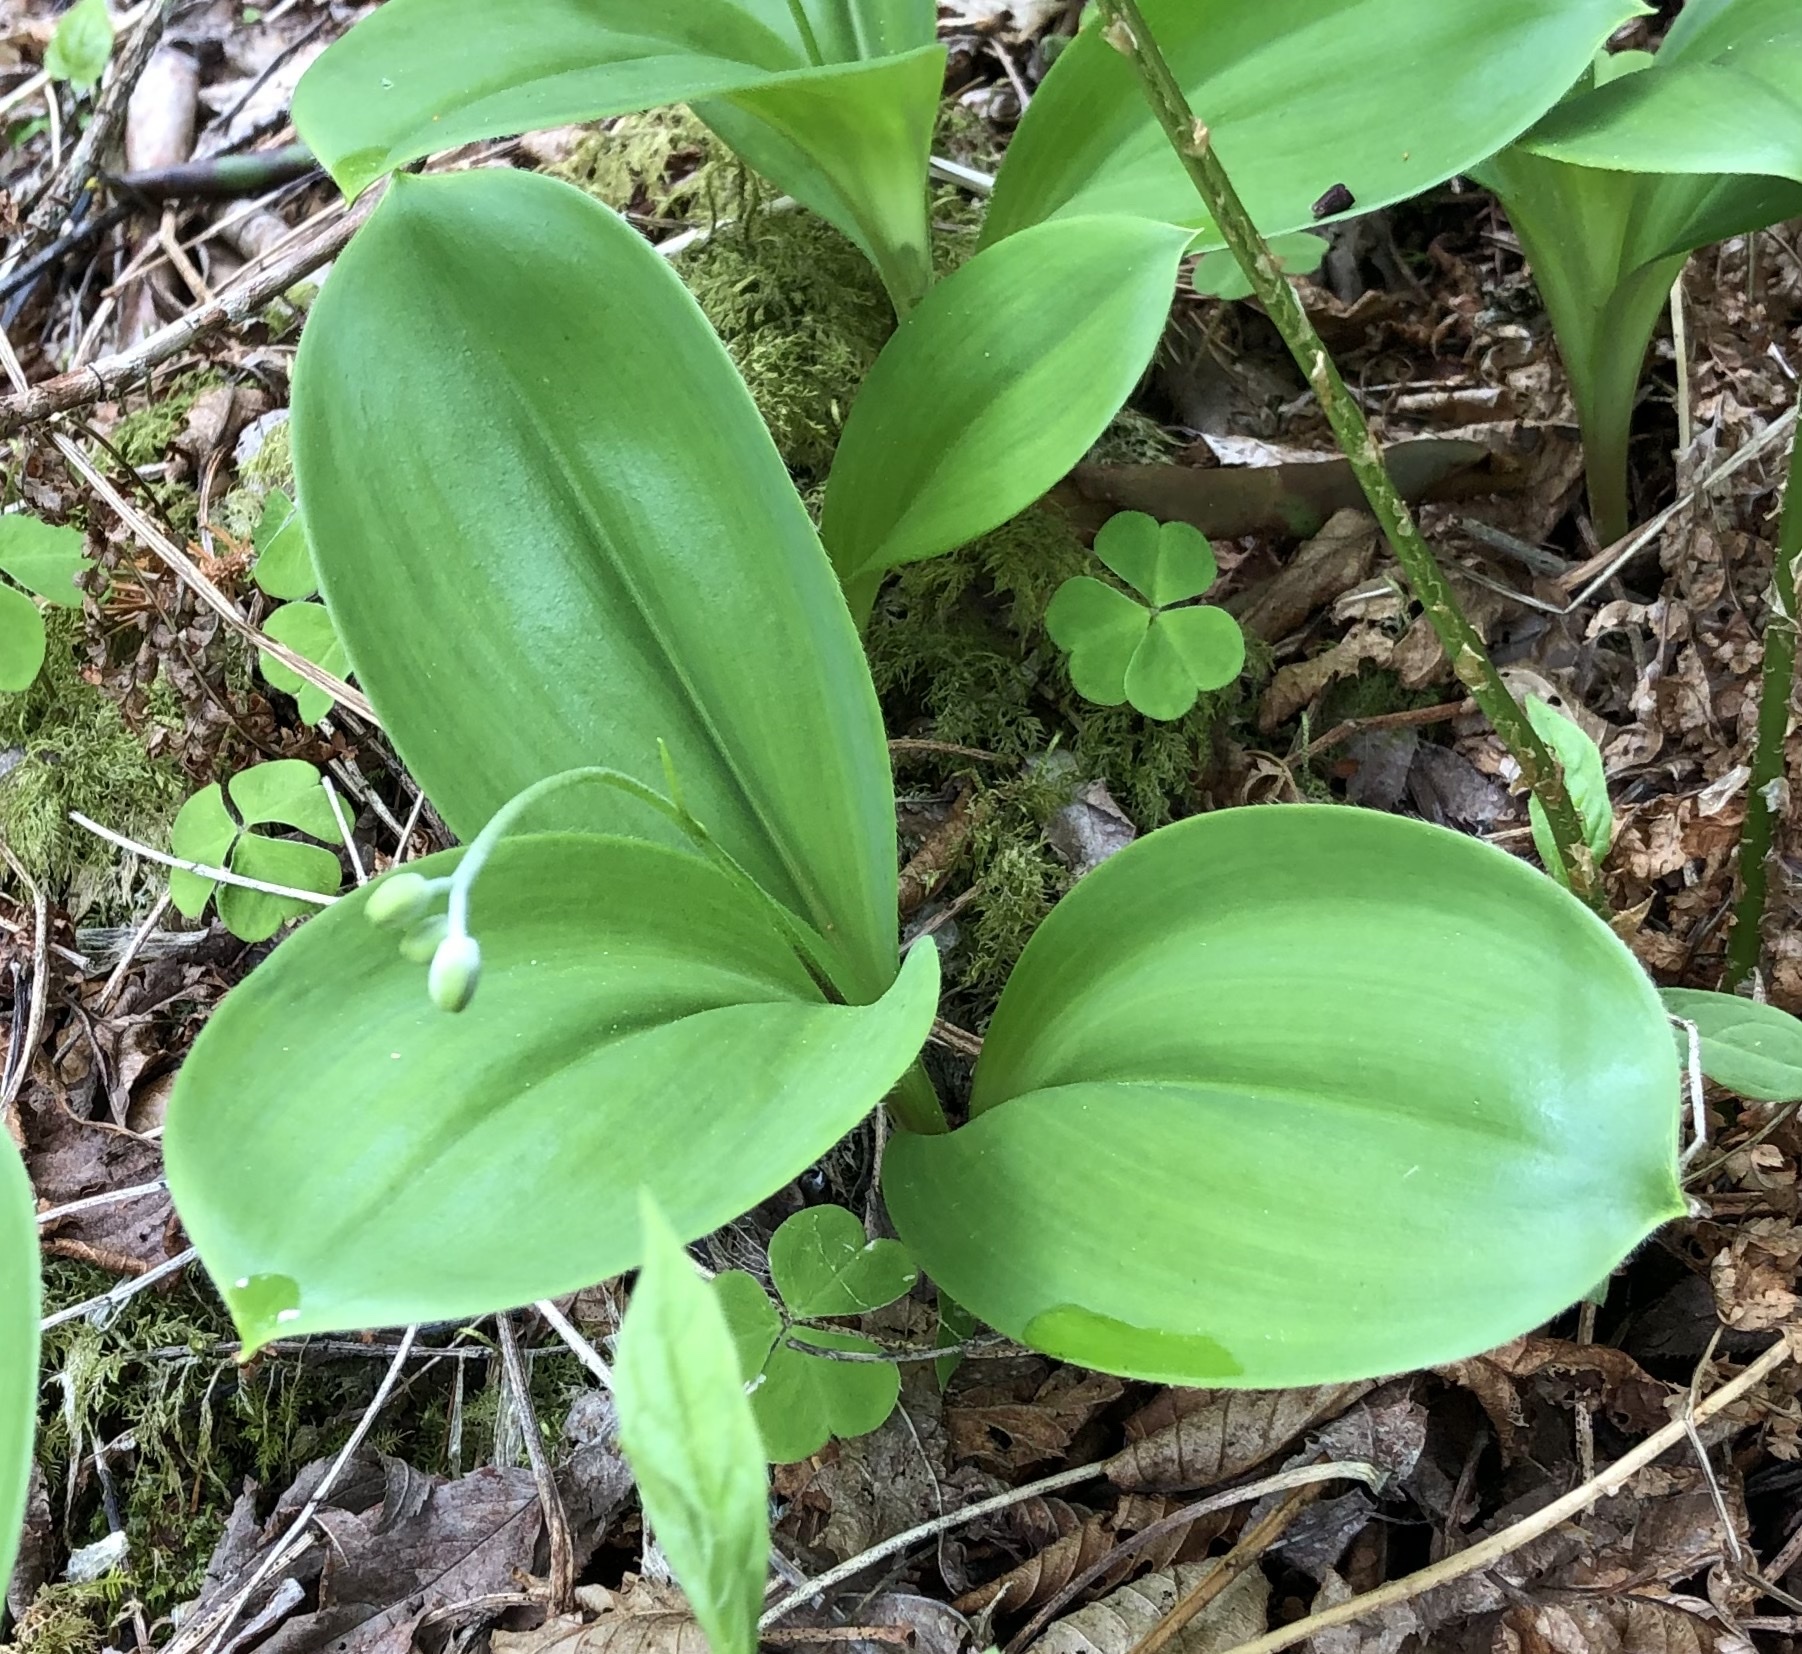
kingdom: Plantae
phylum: Tracheophyta
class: Liliopsida
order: Liliales
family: Liliaceae
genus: Clintonia
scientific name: Clintonia borealis
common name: Yellow clintonia
